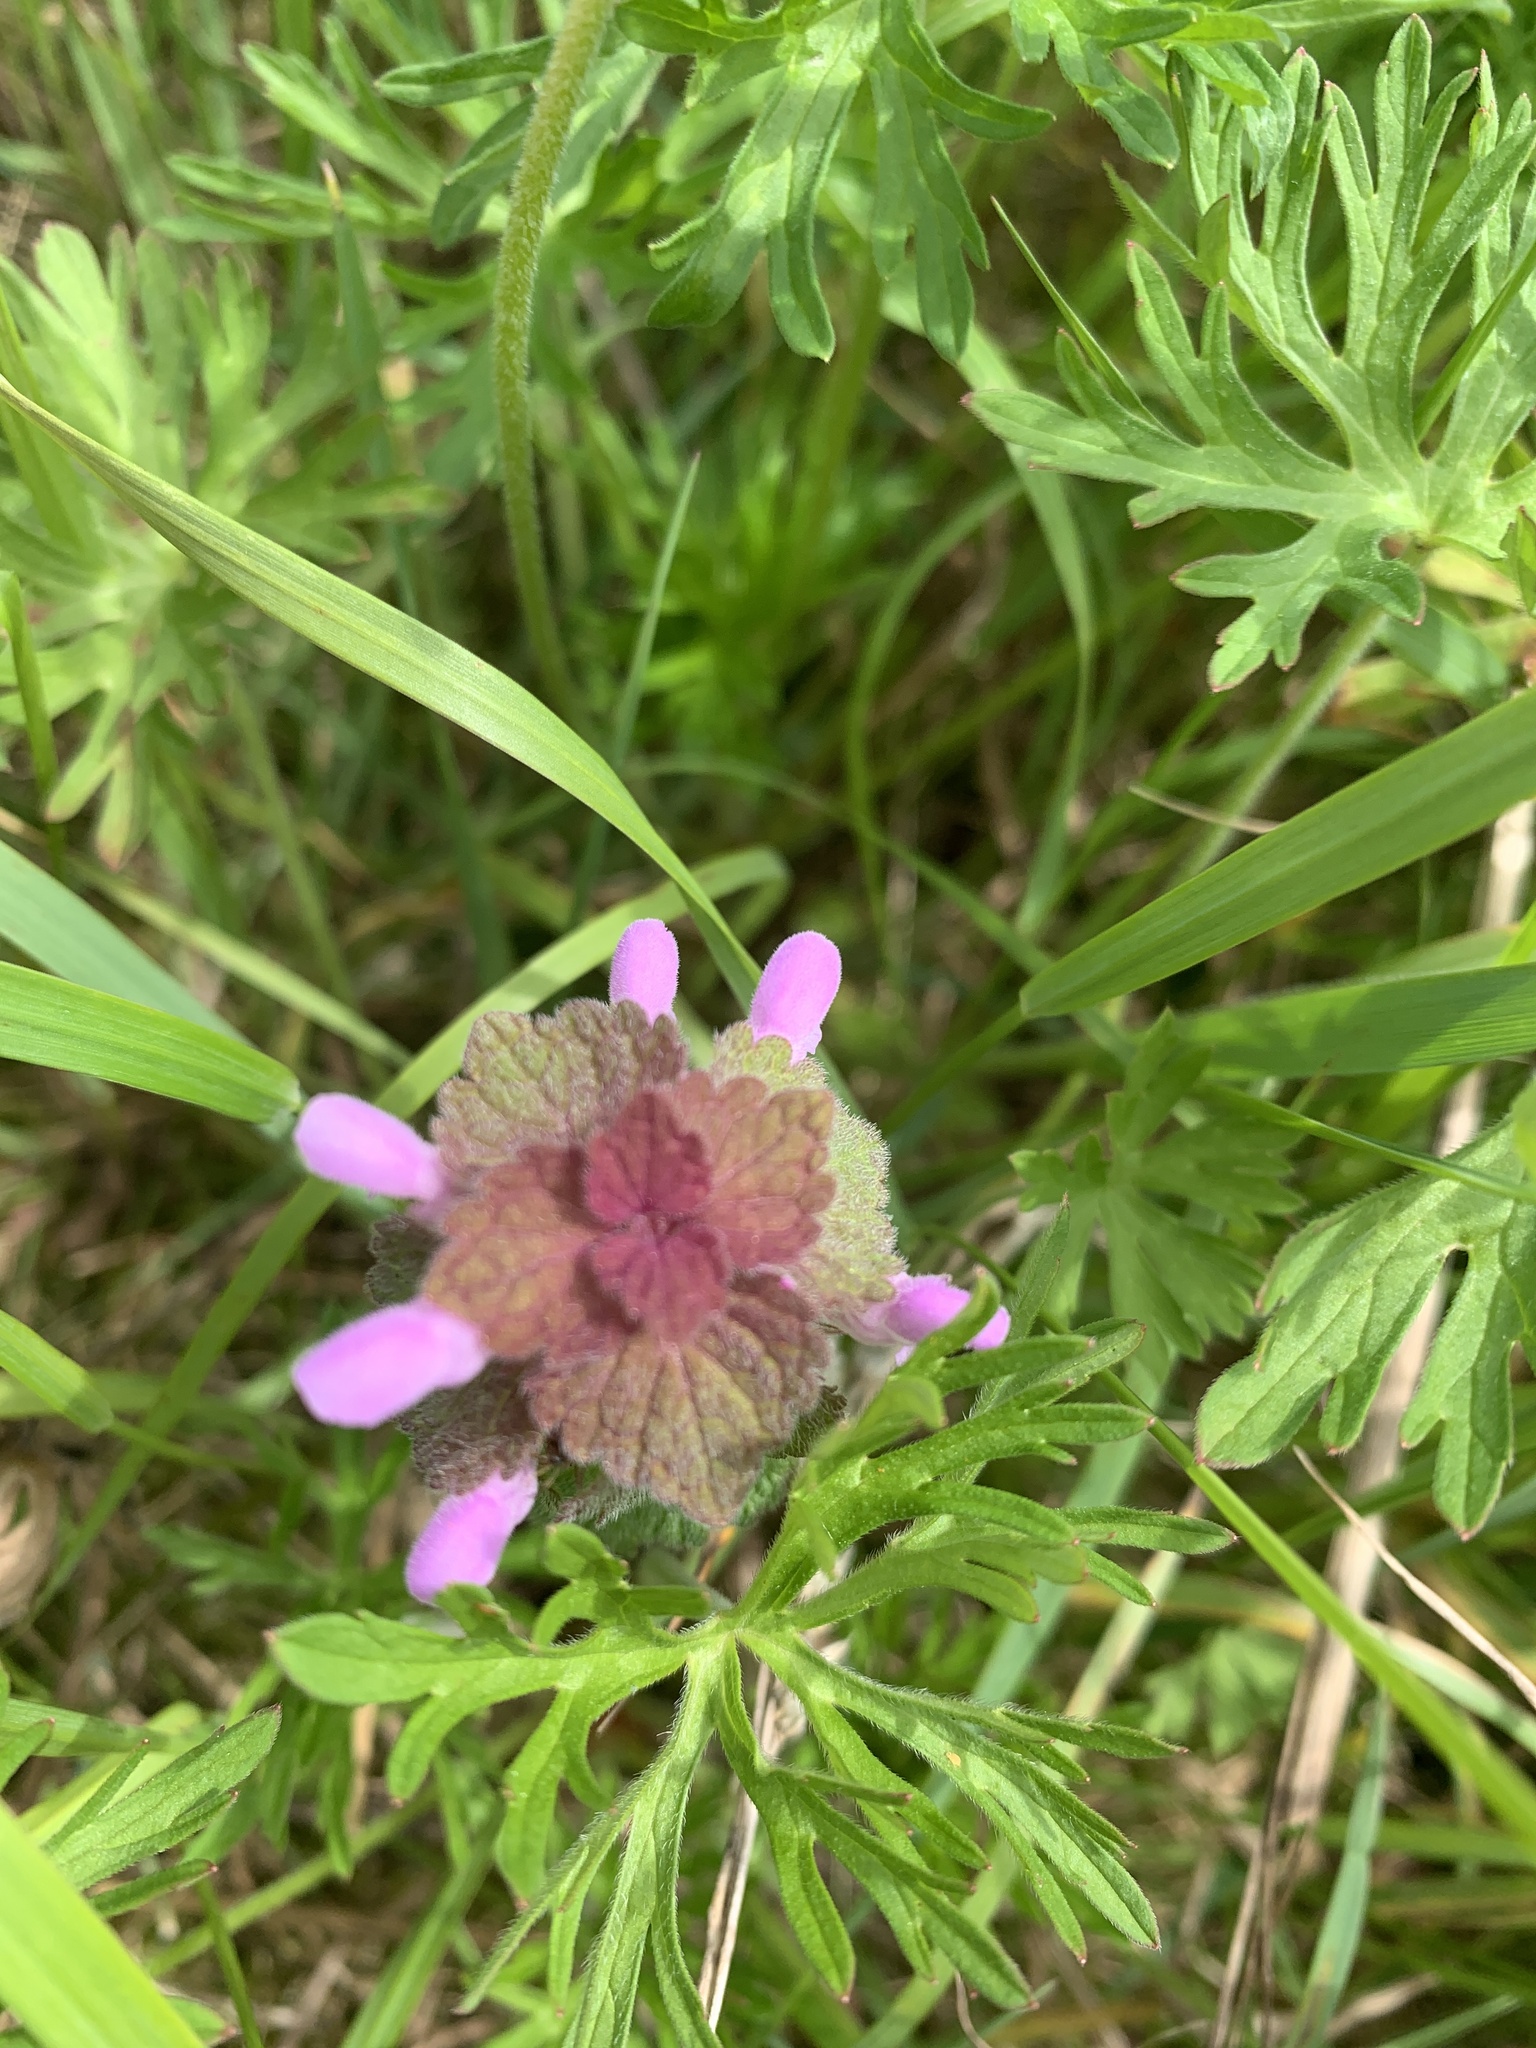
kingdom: Plantae
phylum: Tracheophyta
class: Magnoliopsida
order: Lamiales
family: Lamiaceae
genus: Lamium
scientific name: Lamium purpureum
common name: Red dead-nettle
